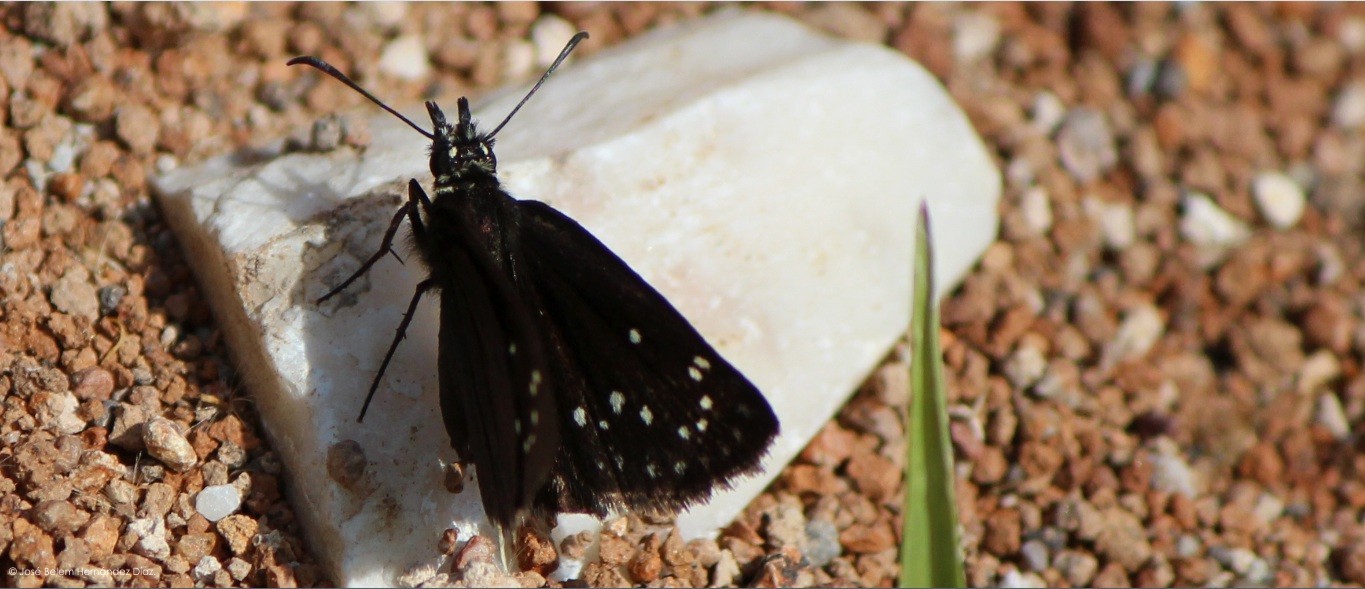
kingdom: Animalia
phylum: Arthropoda
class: Insecta
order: Lepidoptera
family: Hesperiidae
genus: Pholisora
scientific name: Pholisora mejicanus
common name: Mexican sootywing
